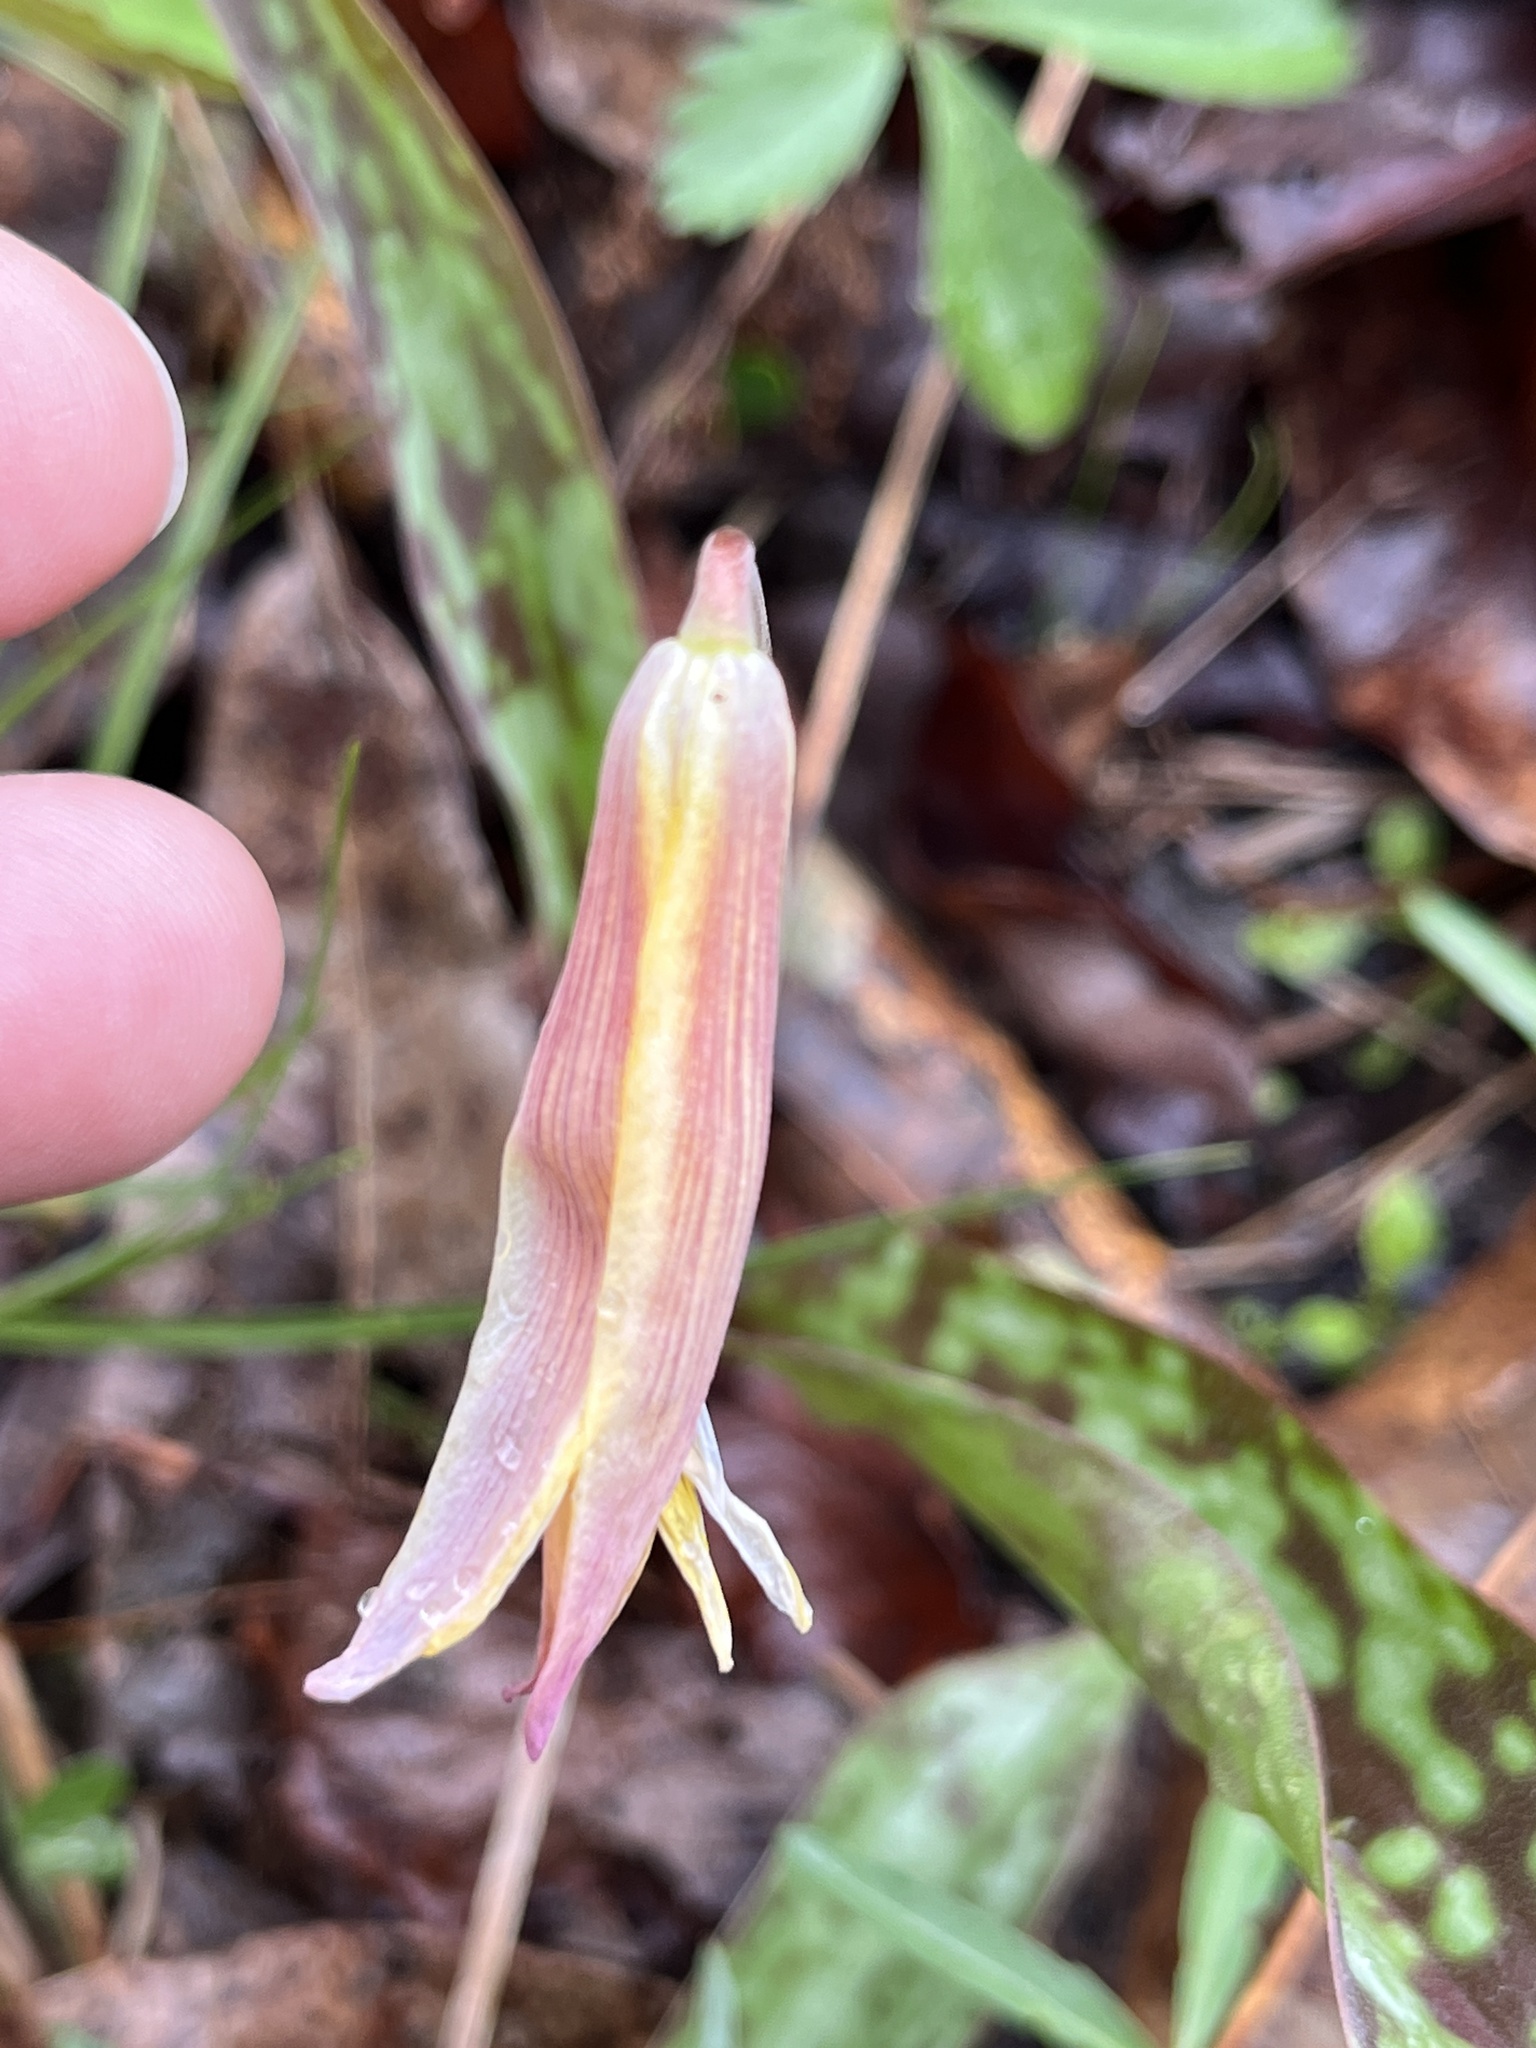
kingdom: Plantae
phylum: Tracheophyta
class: Liliopsida
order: Liliales
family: Liliaceae
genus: Erythronium
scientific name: Erythronium americanum
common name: Yellow adder's-tongue
